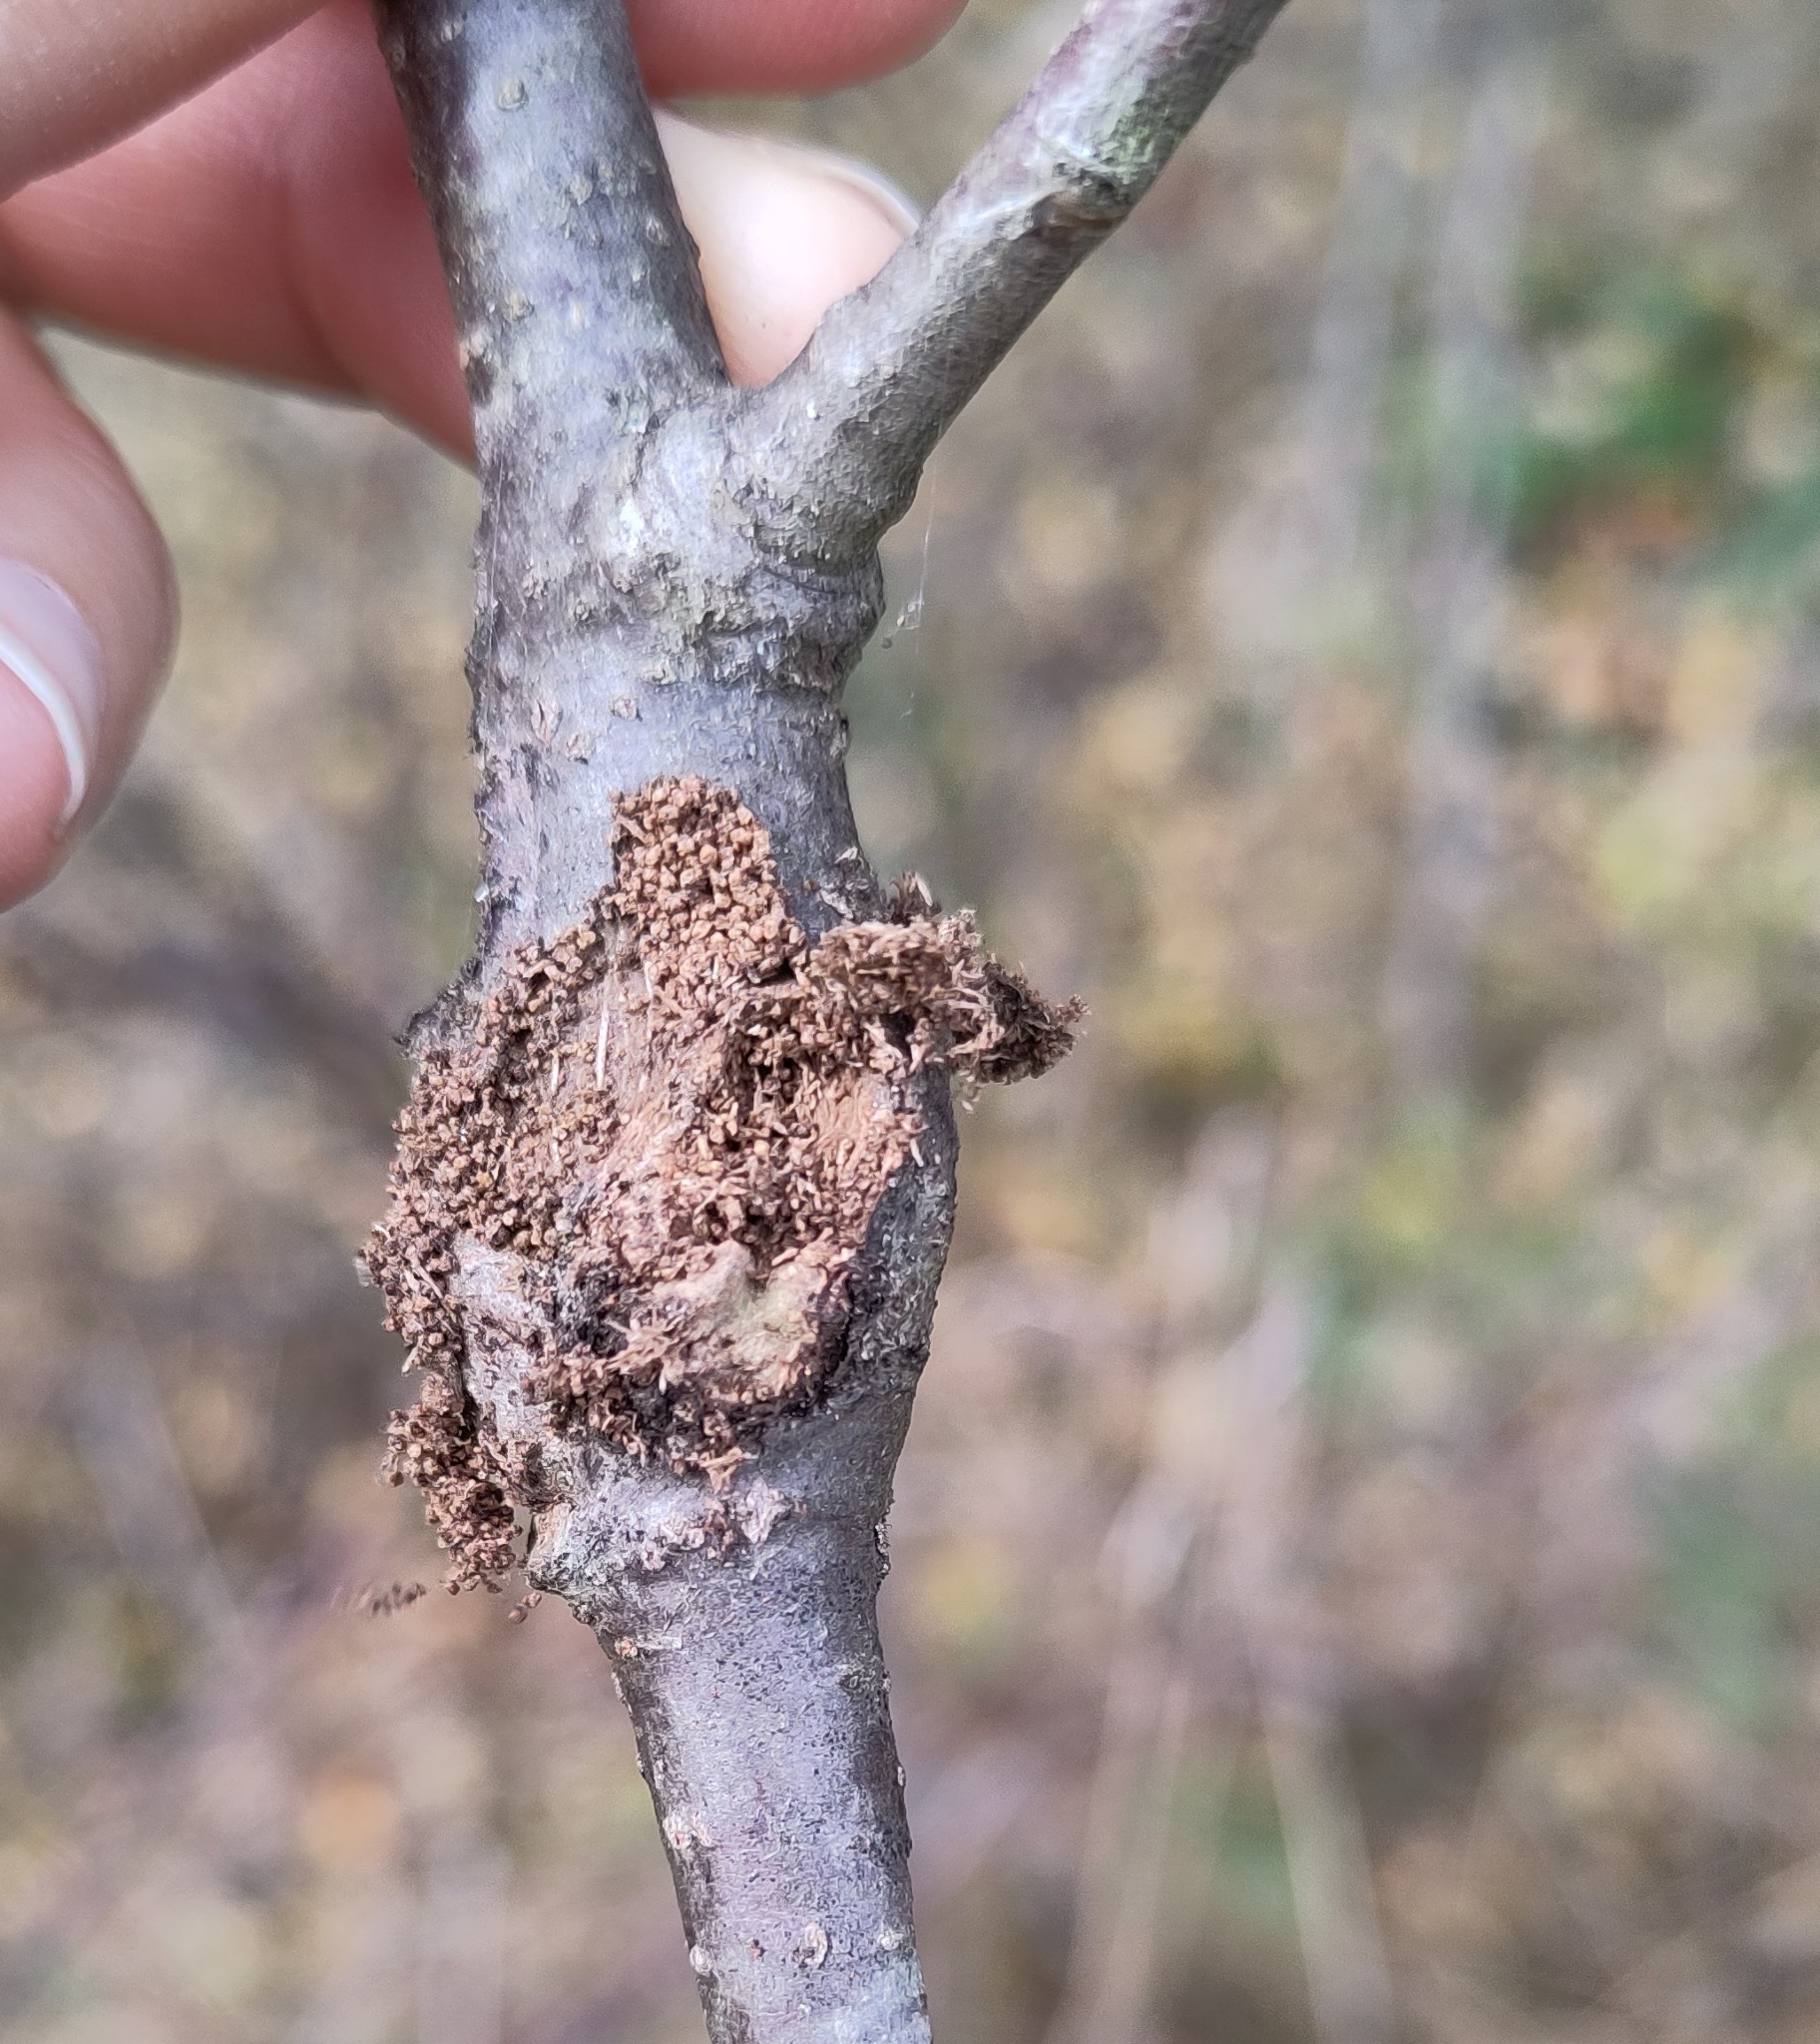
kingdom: Animalia
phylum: Arthropoda
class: Insecta
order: Lepidoptera
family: Tortricidae
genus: Cydia
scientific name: Cydia corollana
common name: Aspen-shoot piercer
